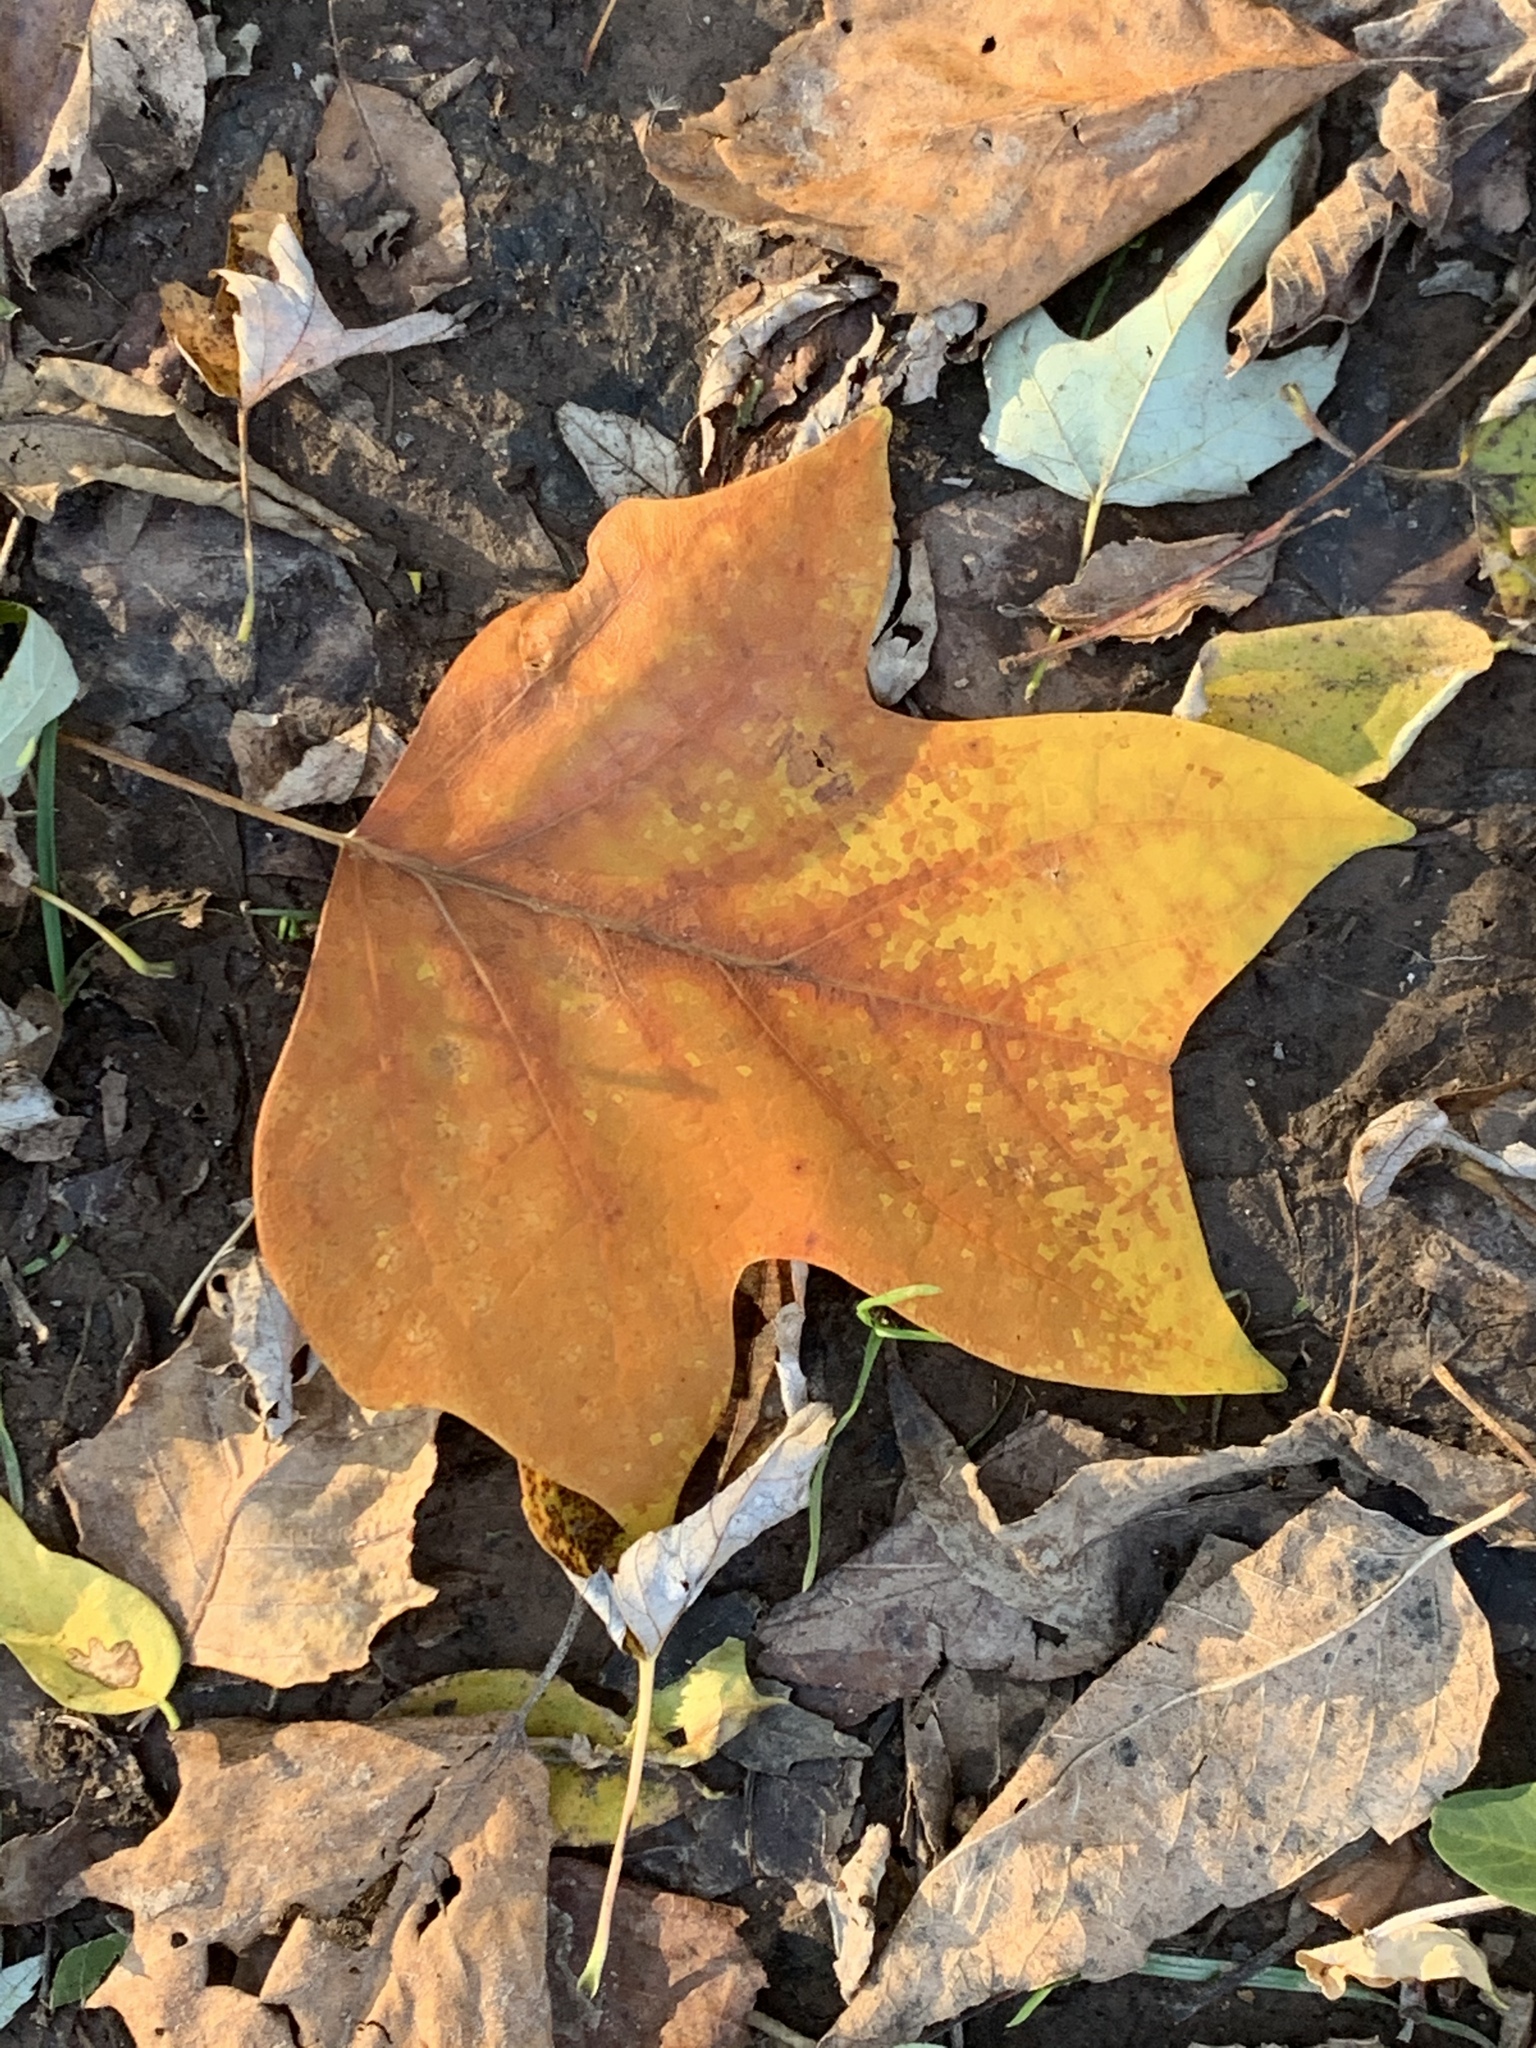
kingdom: Plantae
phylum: Tracheophyta
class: Magnoliopsida
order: Magnoliales
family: Magnoliaceae
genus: Liriodendron
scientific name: Liriodendron tulipifera
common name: Tulip tree
